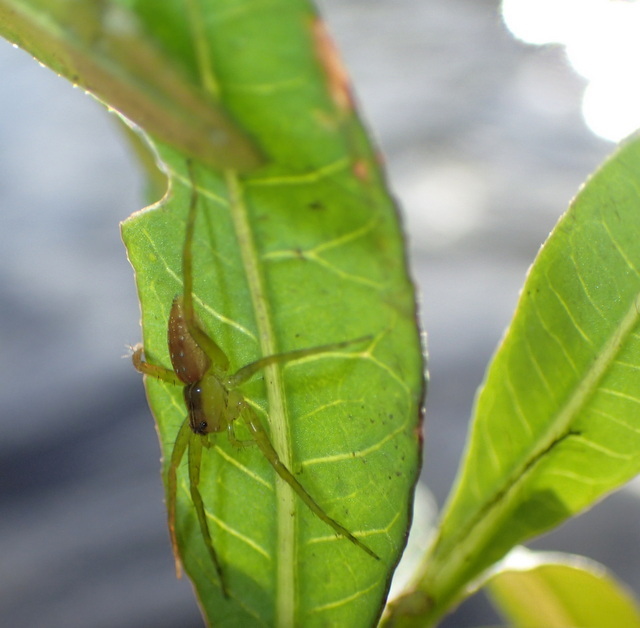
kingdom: Animalia
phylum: Arthropoda
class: Arachnida
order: Araneae
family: Pisauridae
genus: Dolomedes
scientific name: Dolomedes triton
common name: Six-spotted fishing spider
